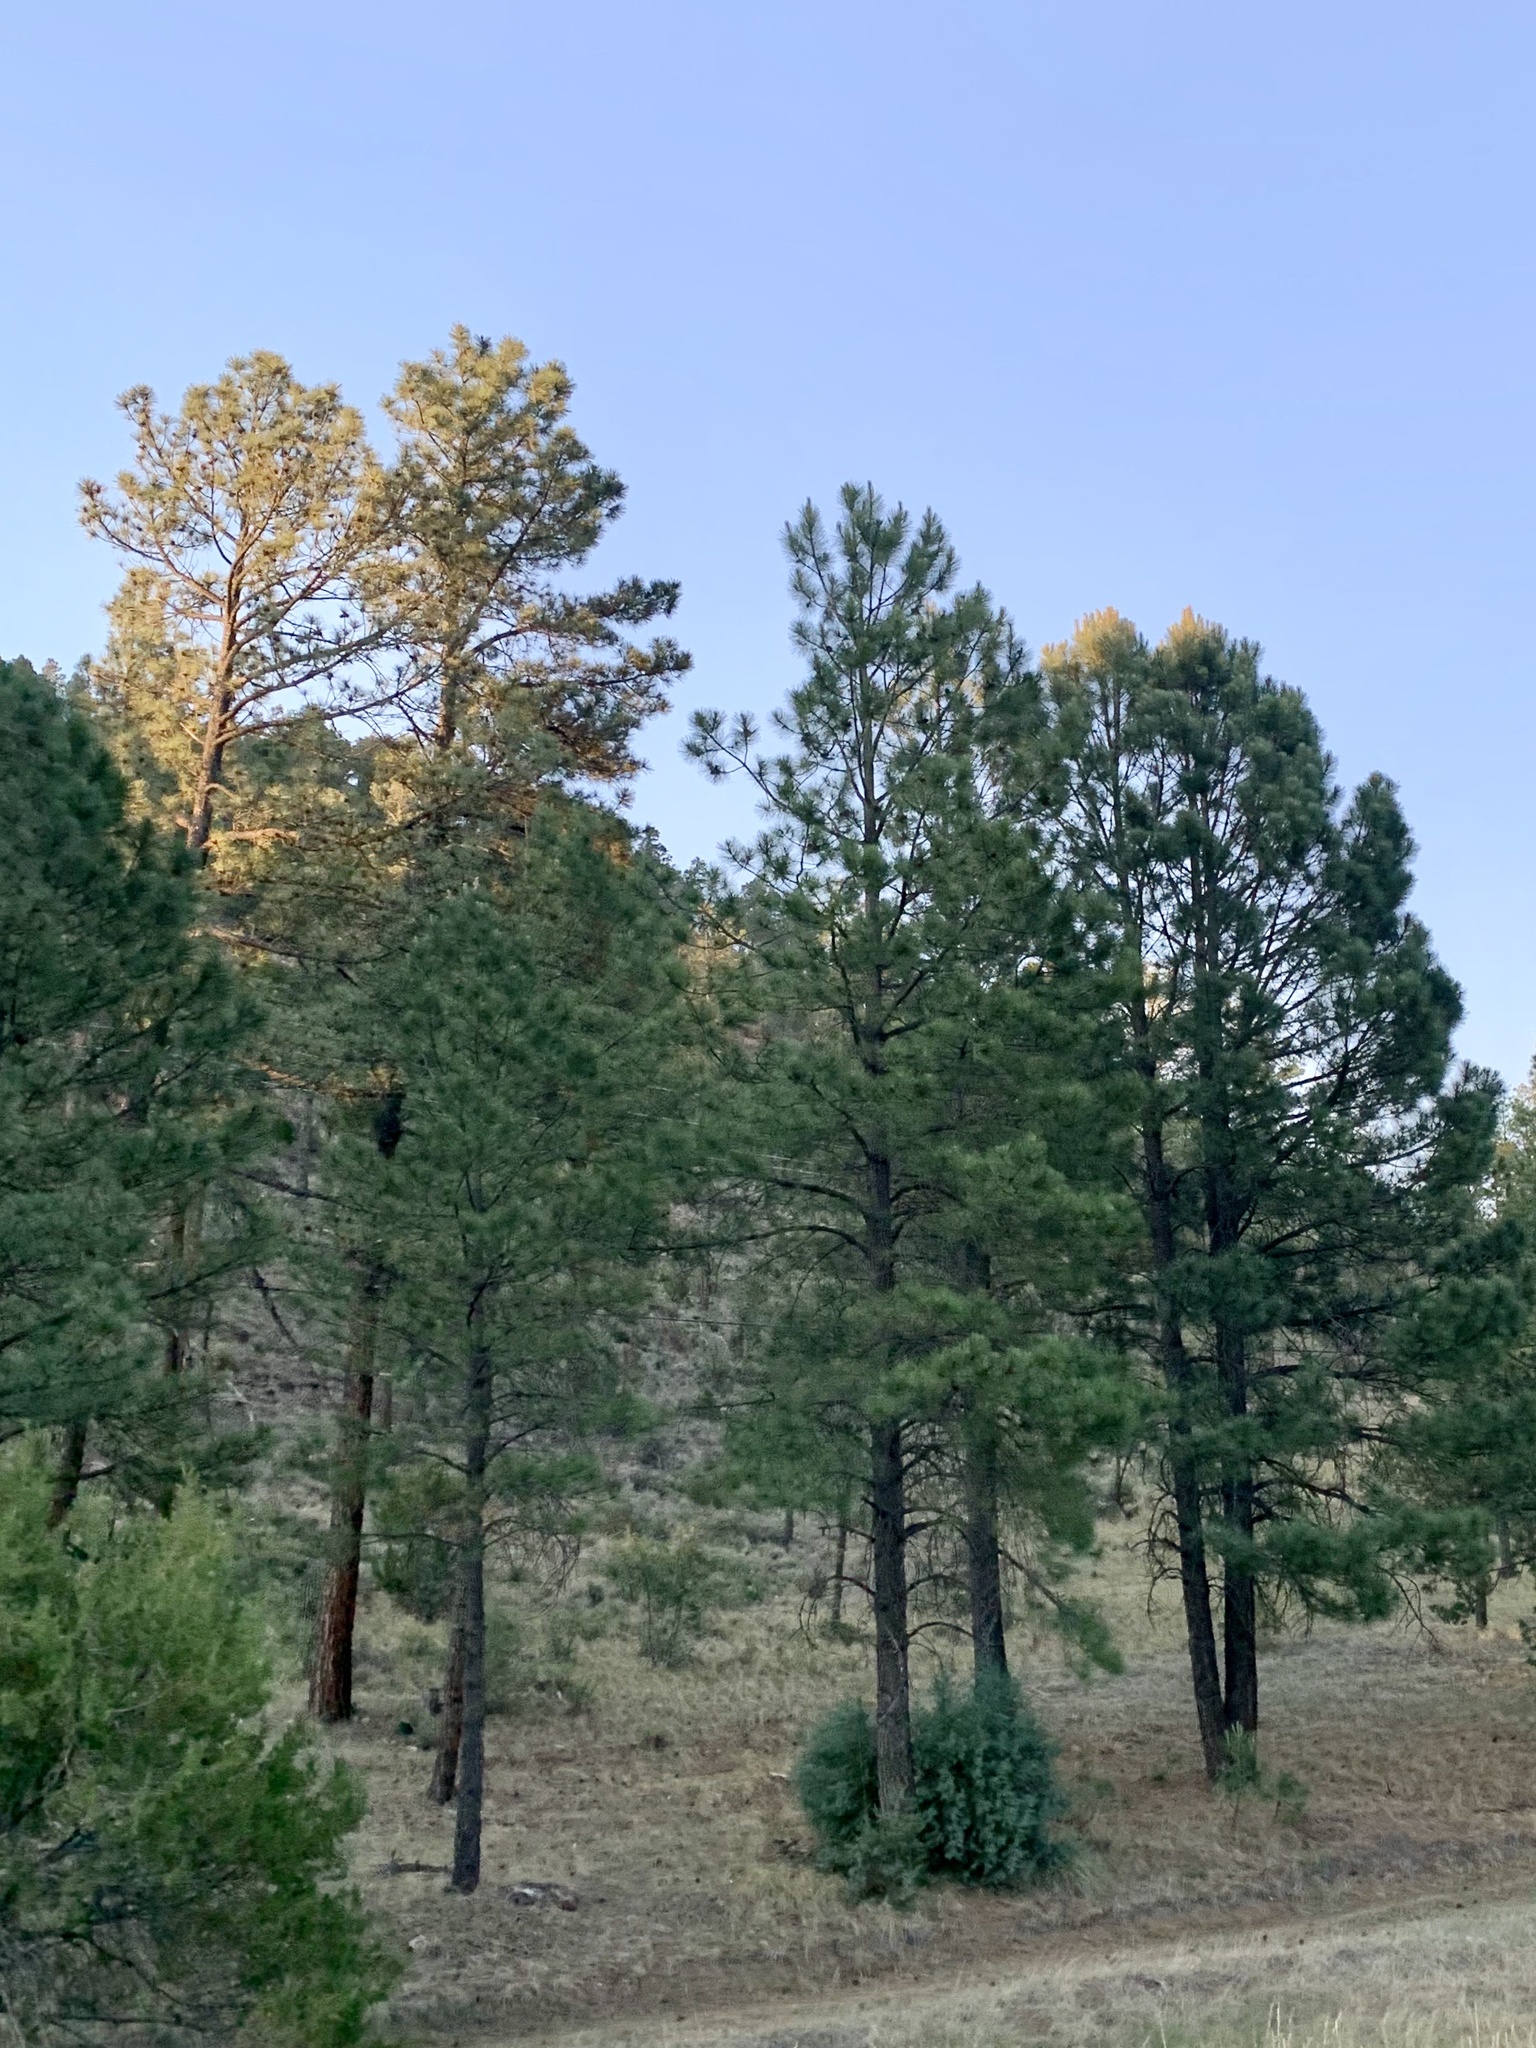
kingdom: Plantae
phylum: Tracheophyta
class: Pinopsida
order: Pinales
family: Pinaceae
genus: Pinus
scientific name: Pinus ponderosa
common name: Western yellow-pine
